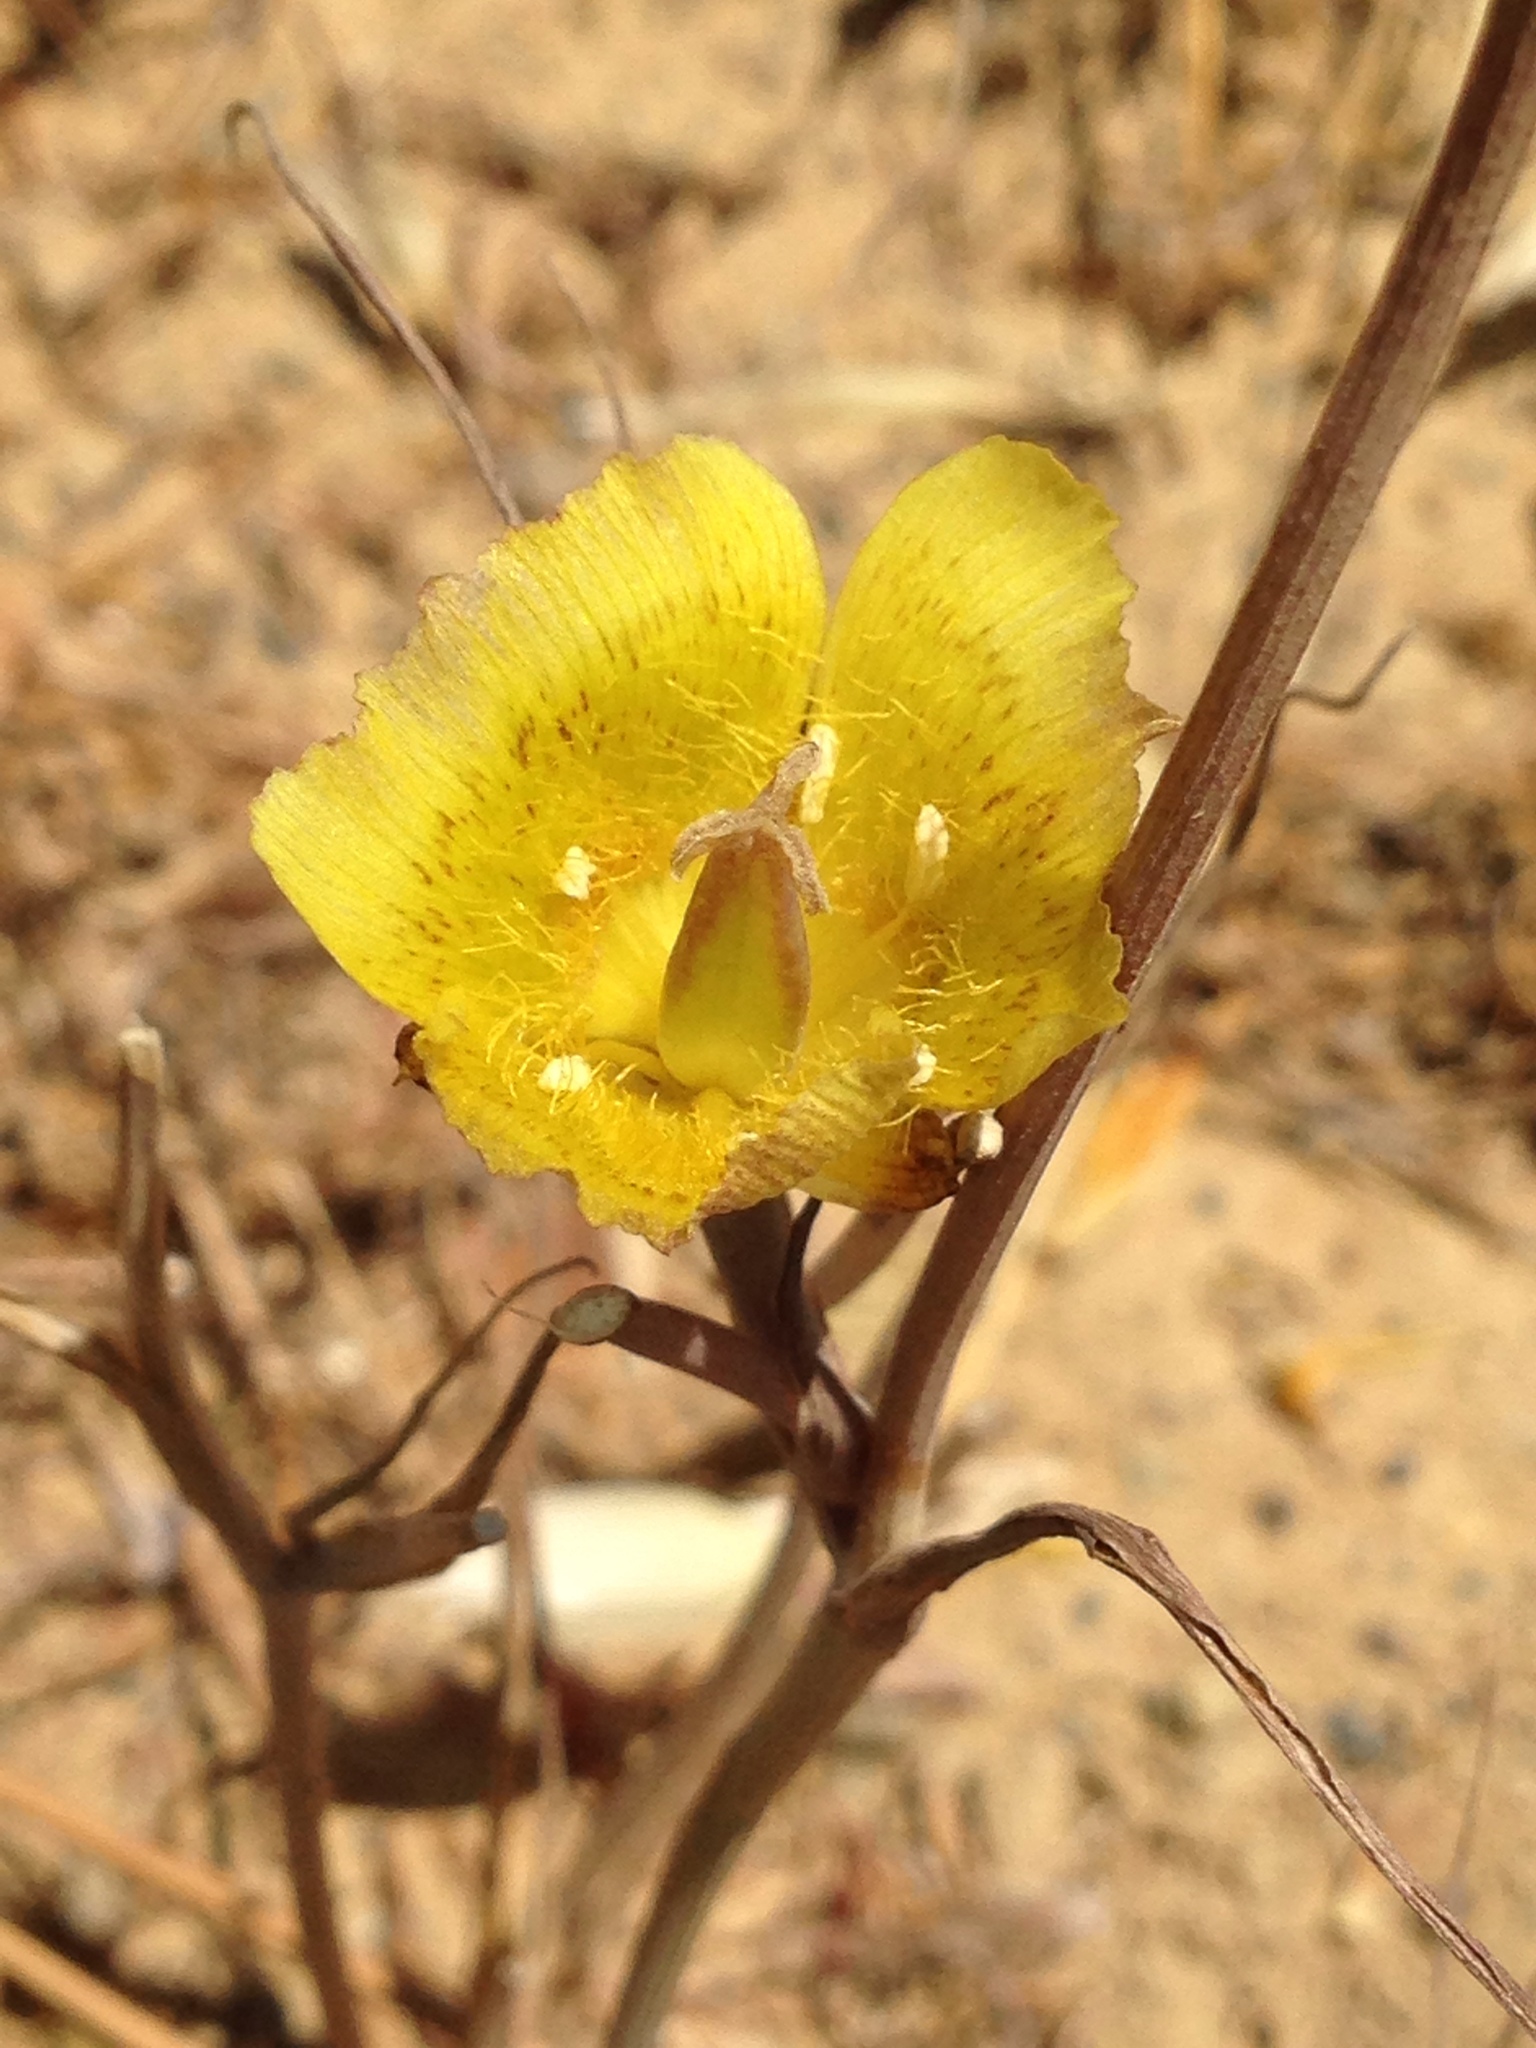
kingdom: Plantae
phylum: Tracheophyta
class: Liliopsida
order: Liliales
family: Liliaceae
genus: Calochortus
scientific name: Calochortus luteus
